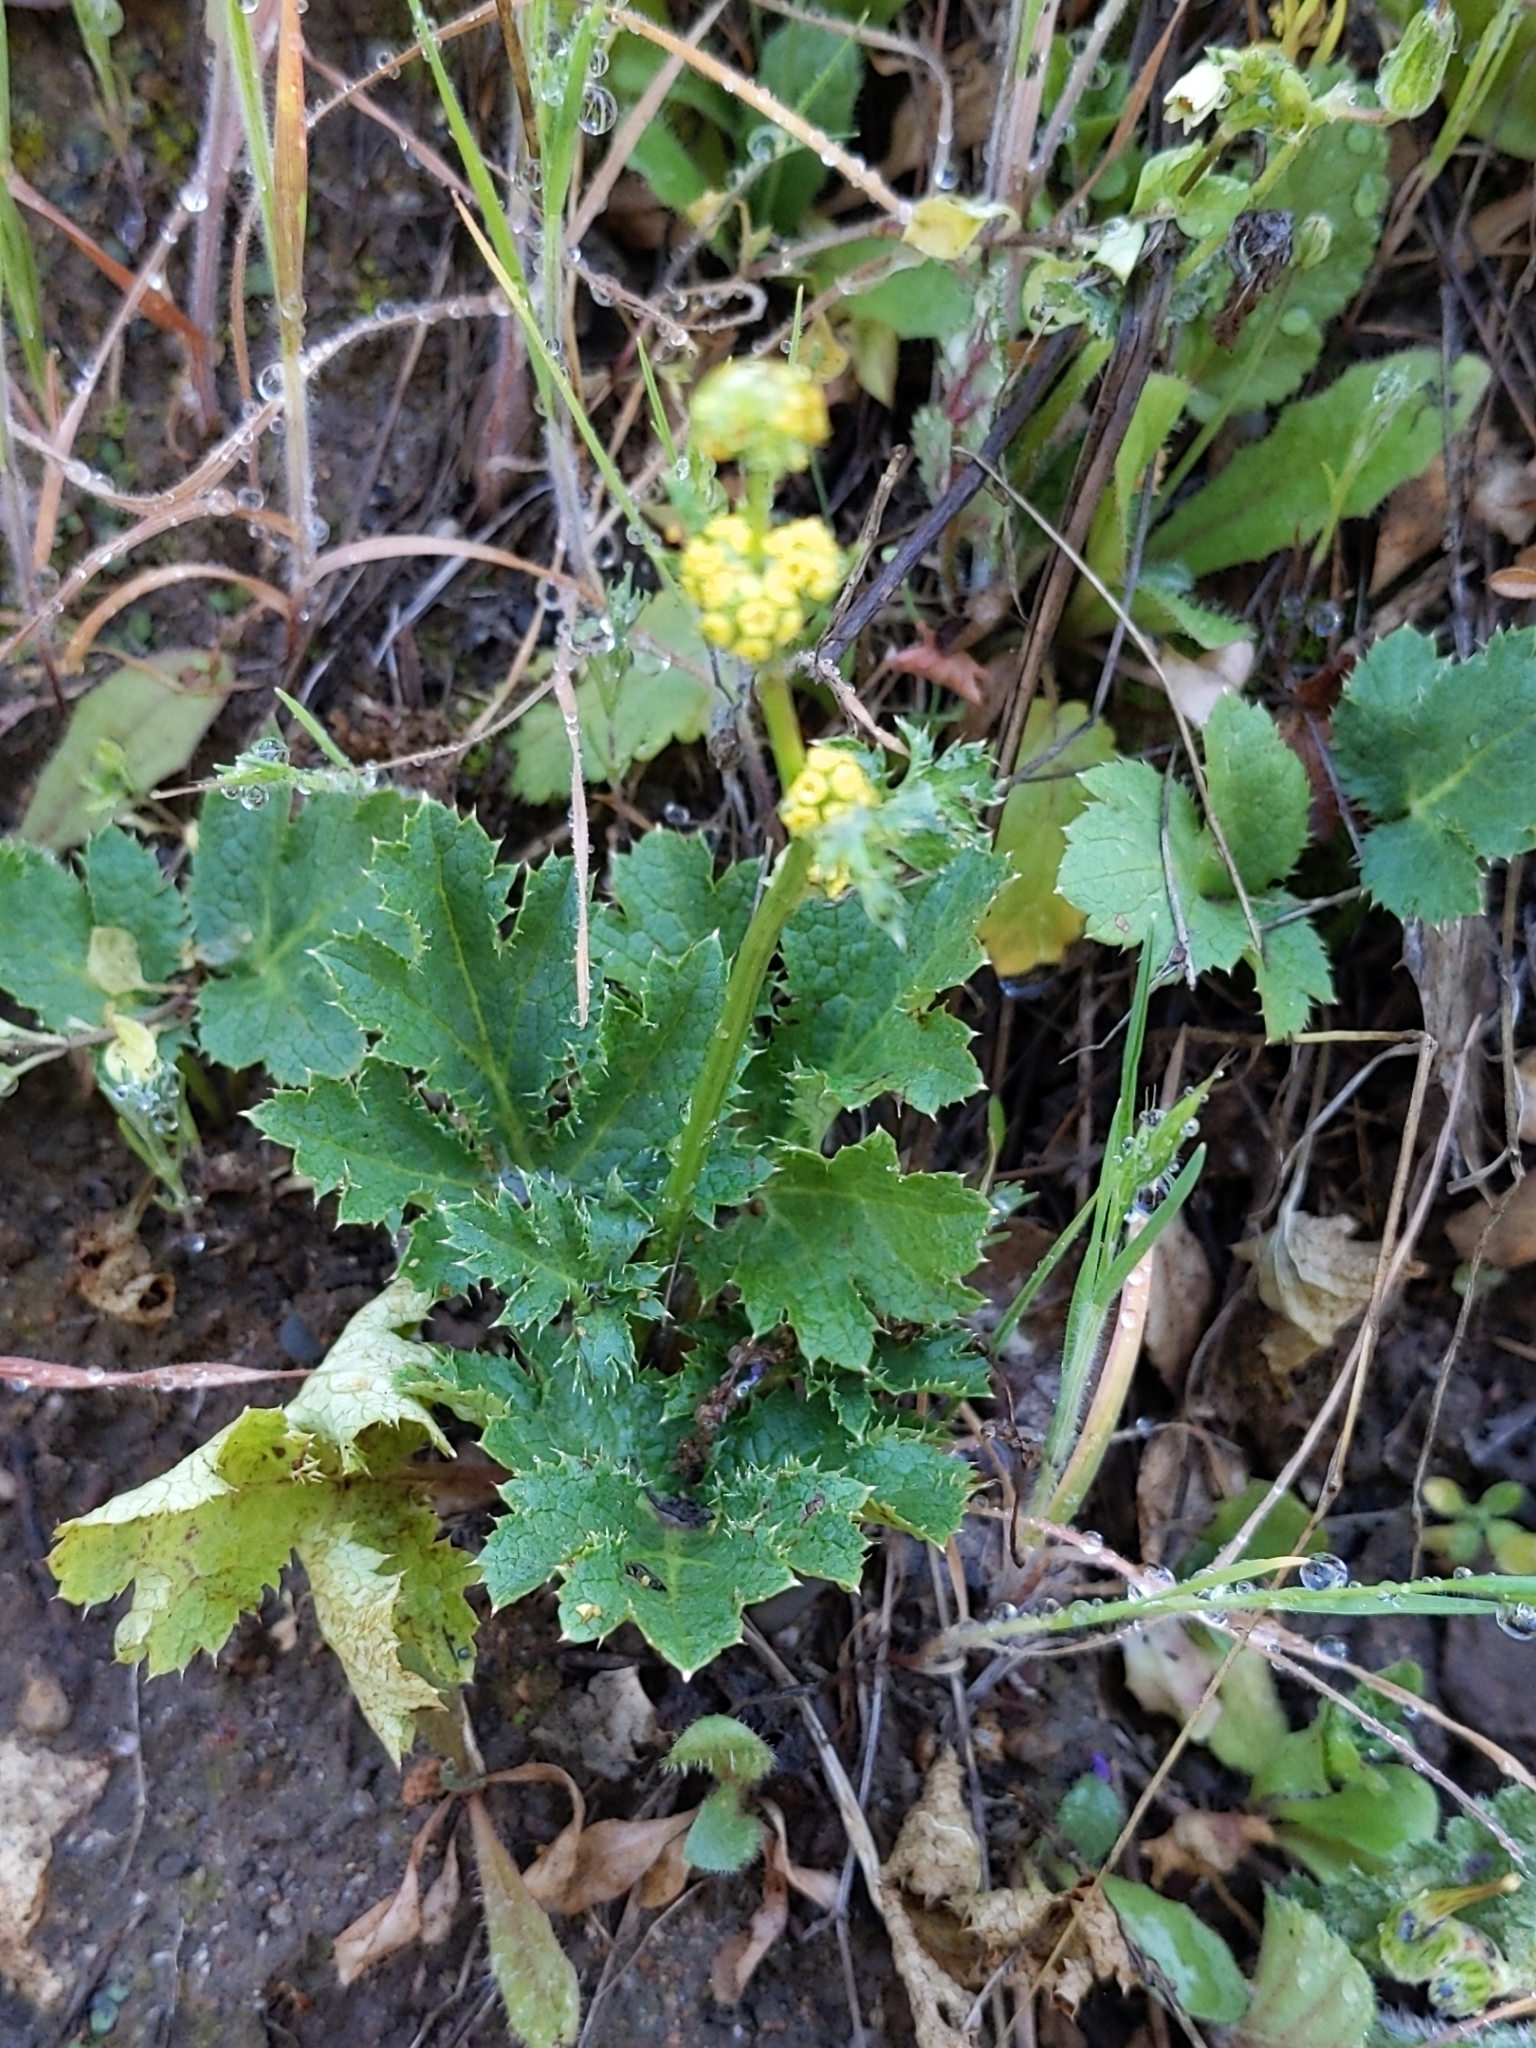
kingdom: Plantae
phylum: Tracheophyta
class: Magnoliopsida
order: Apiales
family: Apiaceae
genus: Sanicula
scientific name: Sanicula crassicaulis
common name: Western snakeroot
